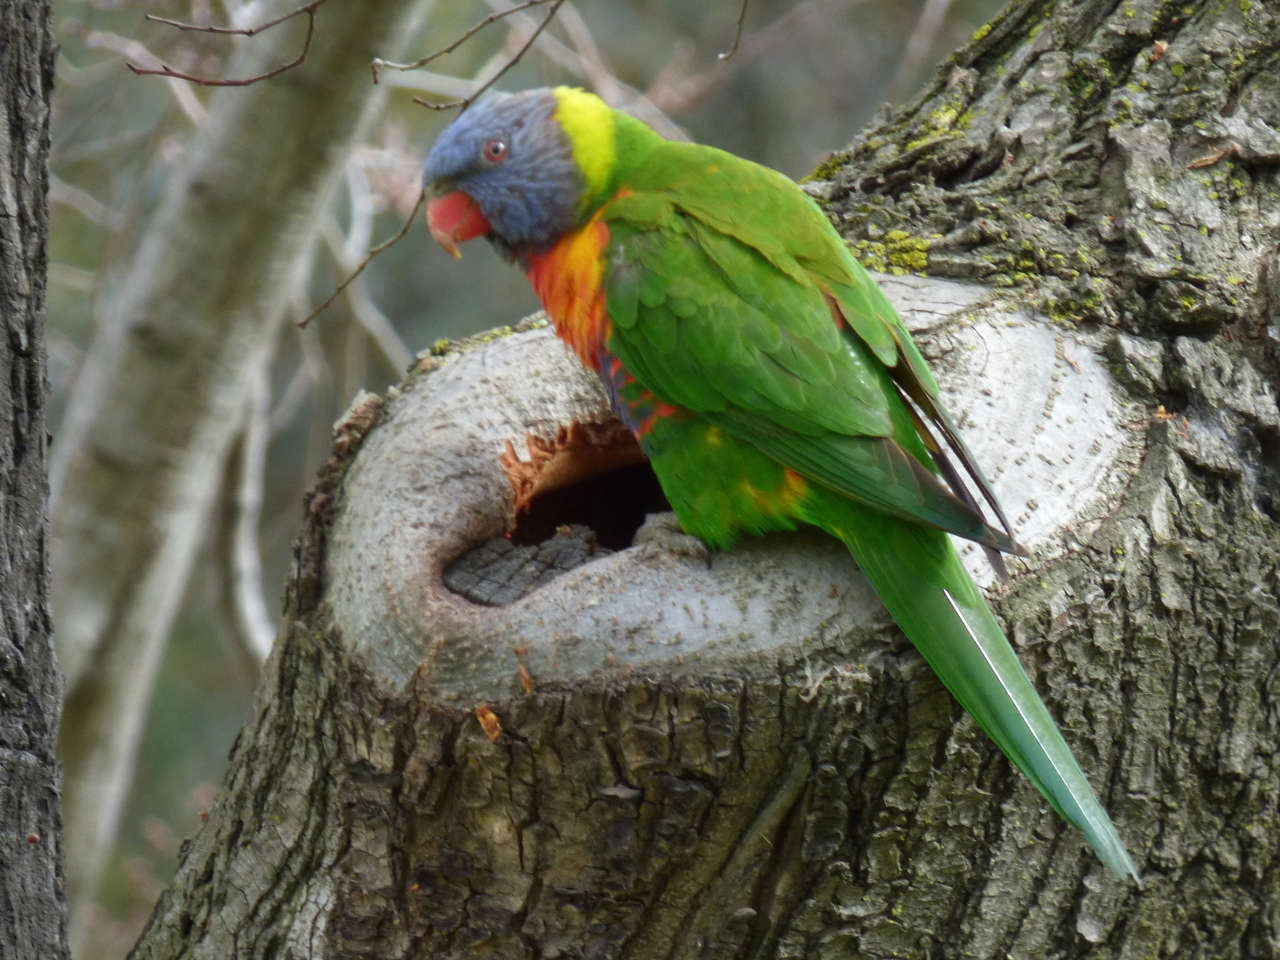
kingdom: Animalia
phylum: Chordata
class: Aves
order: Psittaciformes
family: Psittacidae
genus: Trichoglossus
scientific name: Trichoglossus haematodus
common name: Coconut lorikeet
